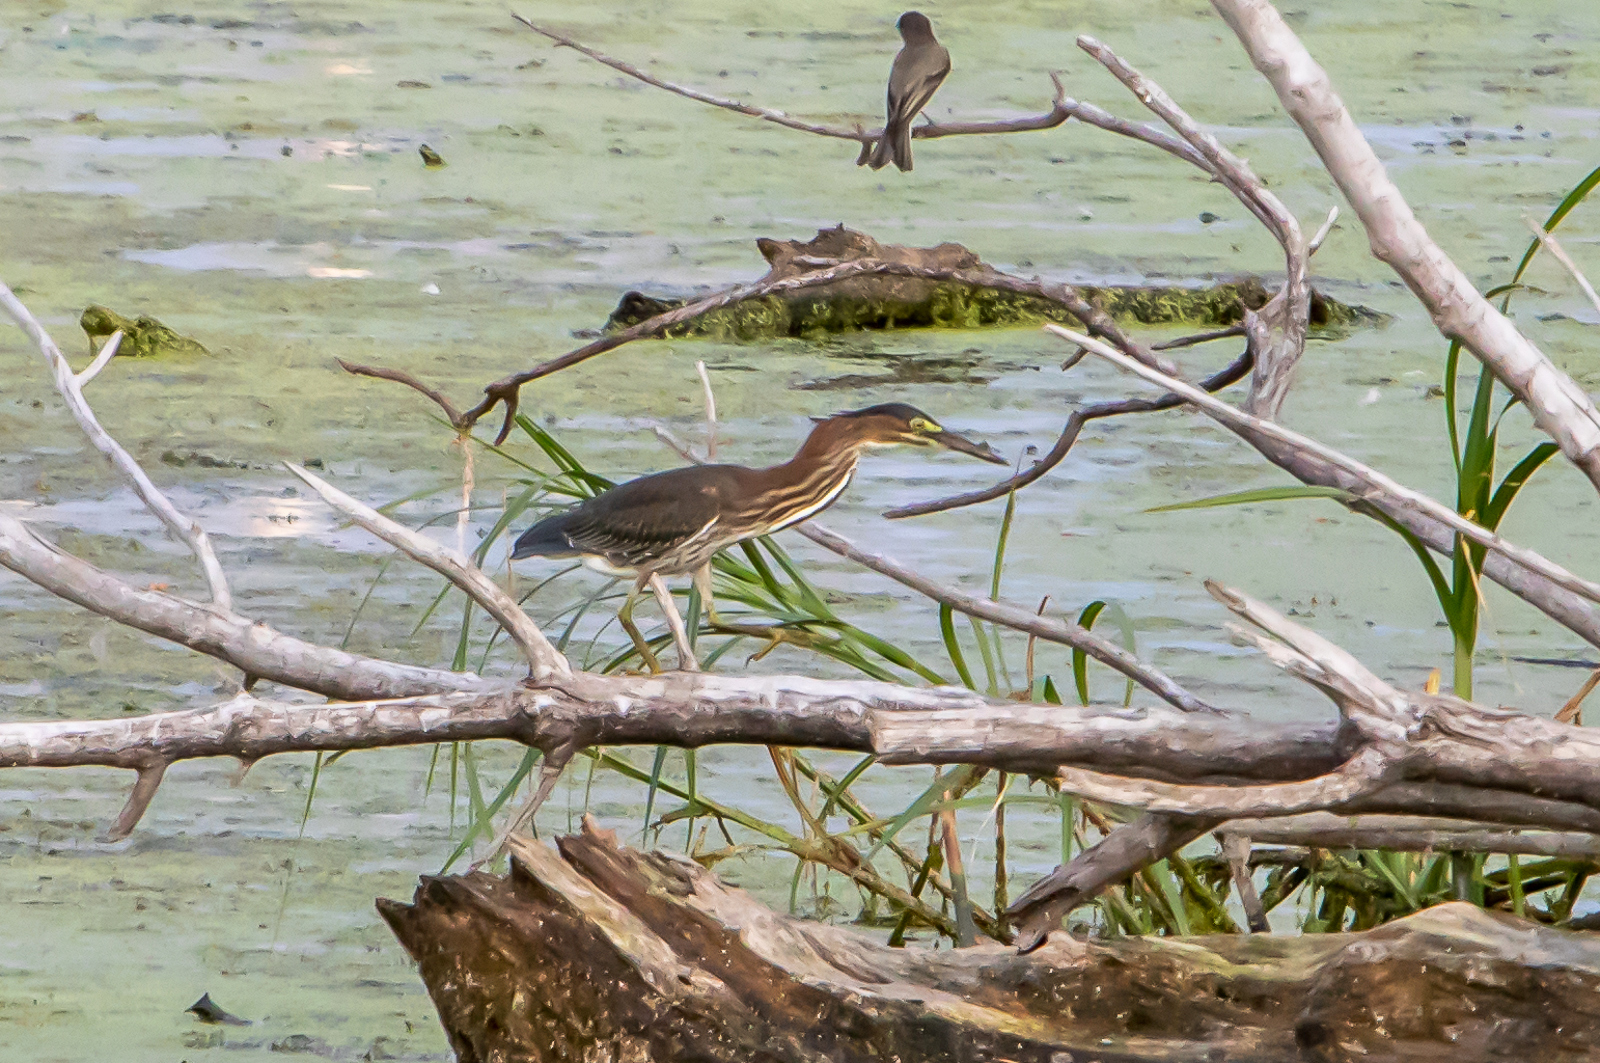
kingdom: Animalia
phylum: Chordata
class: Aves
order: Pelecaniformes
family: Ardeidae
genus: Butorides
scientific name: Butorides virescens
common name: Green heron
